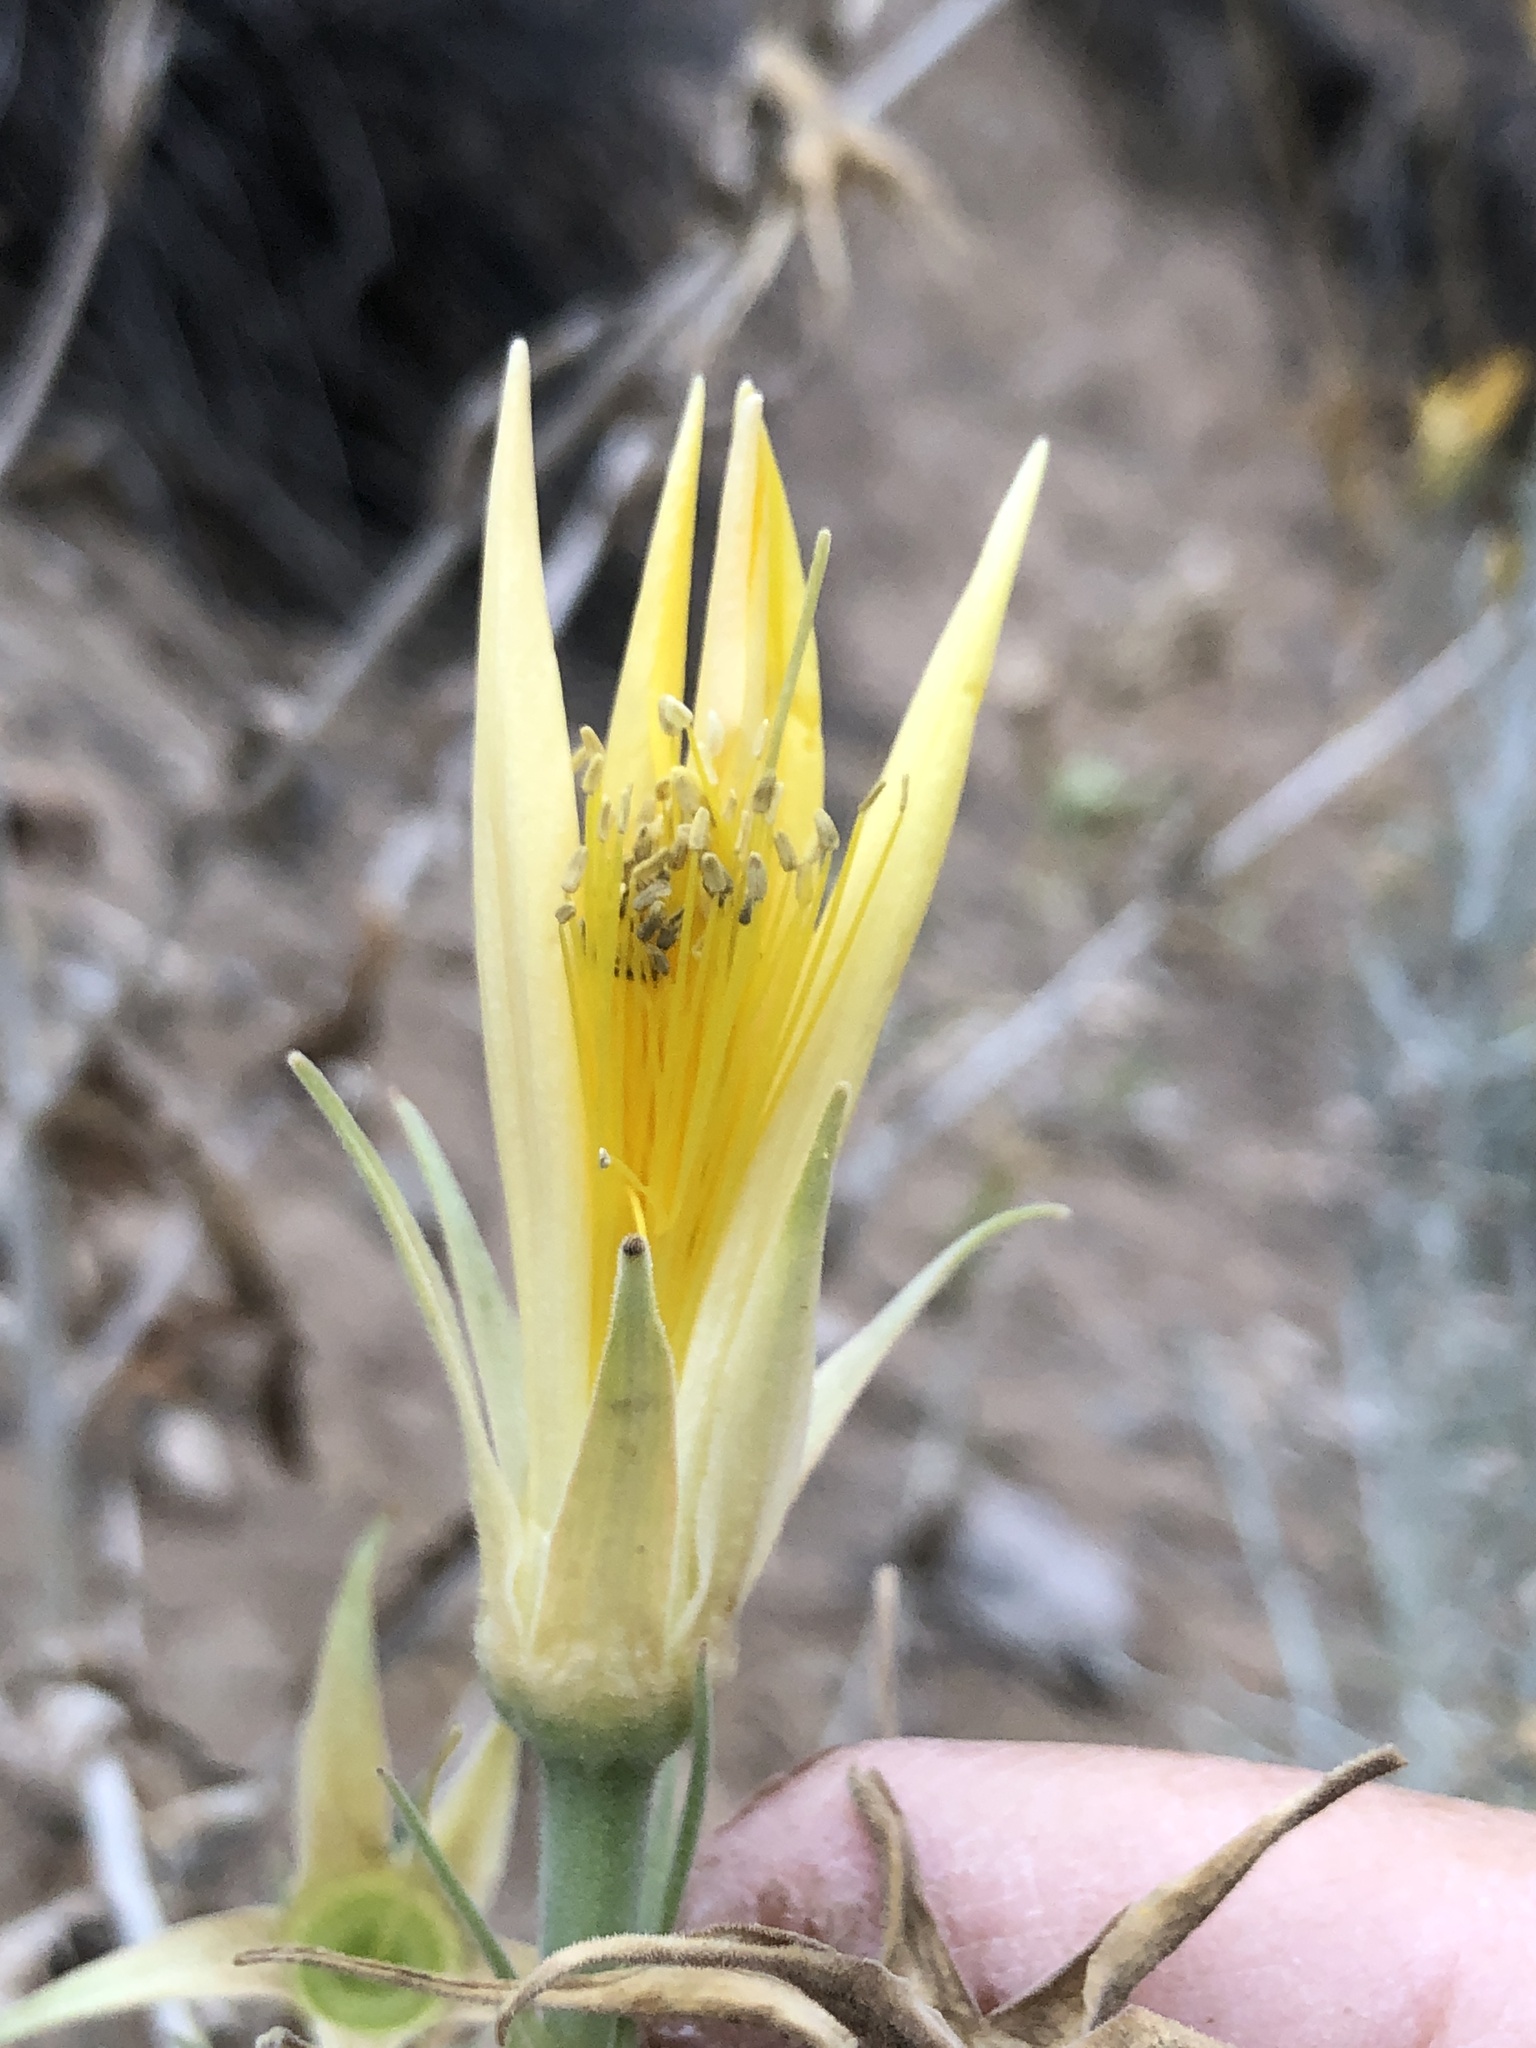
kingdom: Plantae
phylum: Tracheophyta
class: Magnoliopsida
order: Cornales
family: Loasaceae
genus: Mentzelia
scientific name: Mentzelia laevicaulis
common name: Smooth-stem blazingstar
